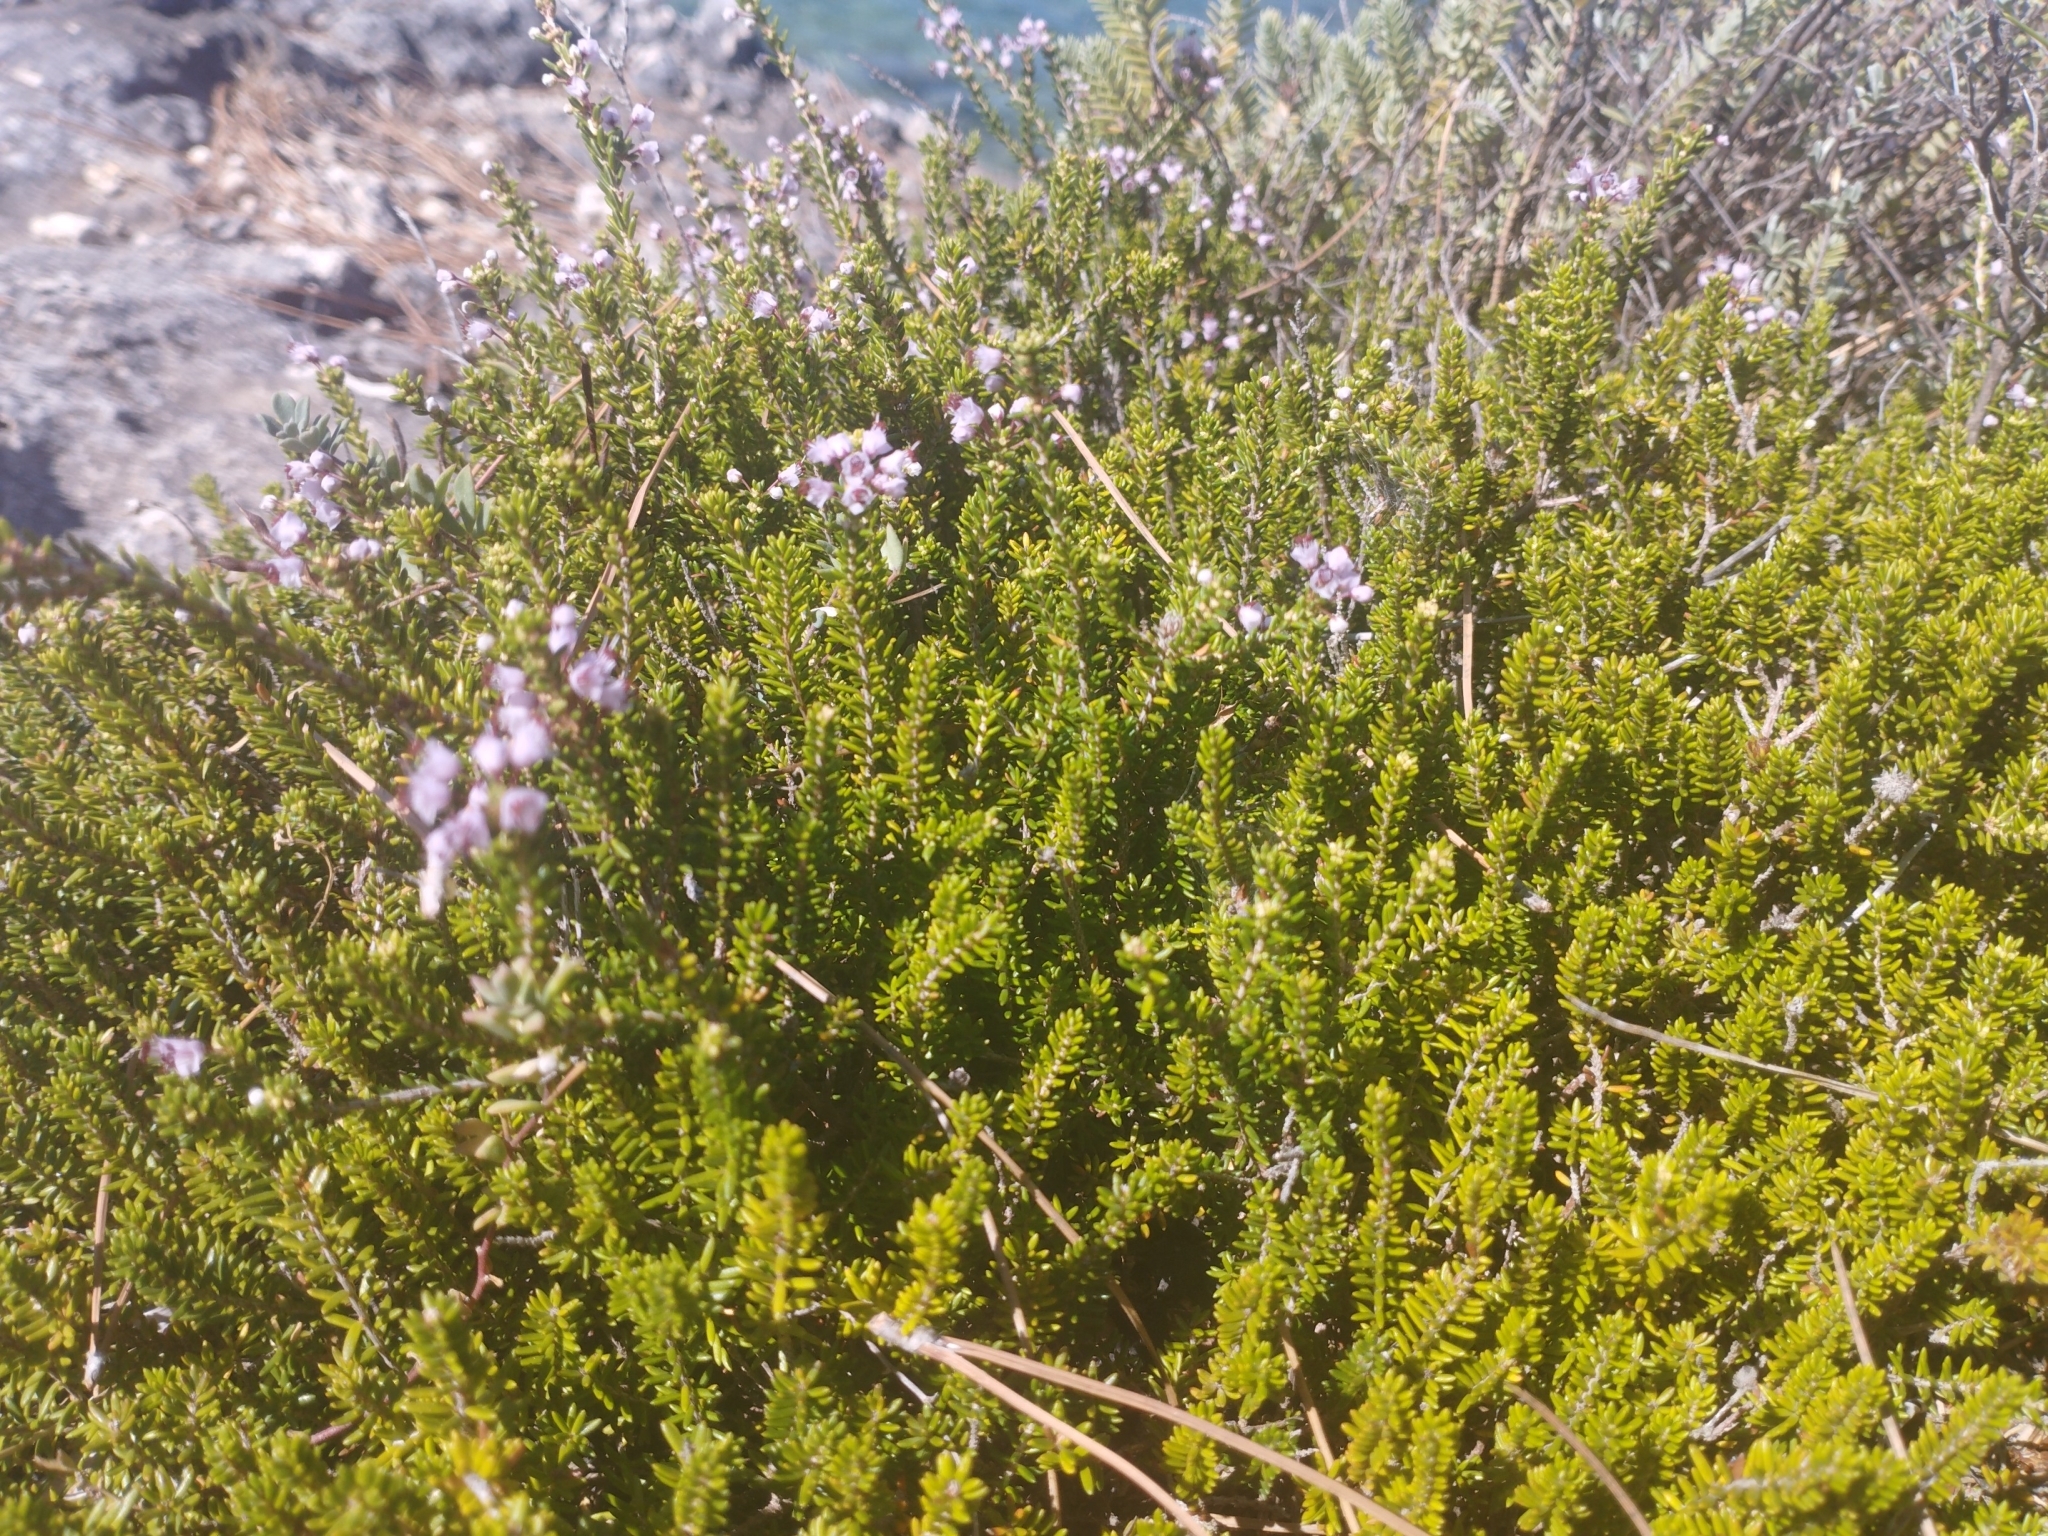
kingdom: Plantae
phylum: Tracheophyta
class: Magnoliopsida
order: Ericales
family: Ericaceae
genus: Erica
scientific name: Erica manipuliflora
